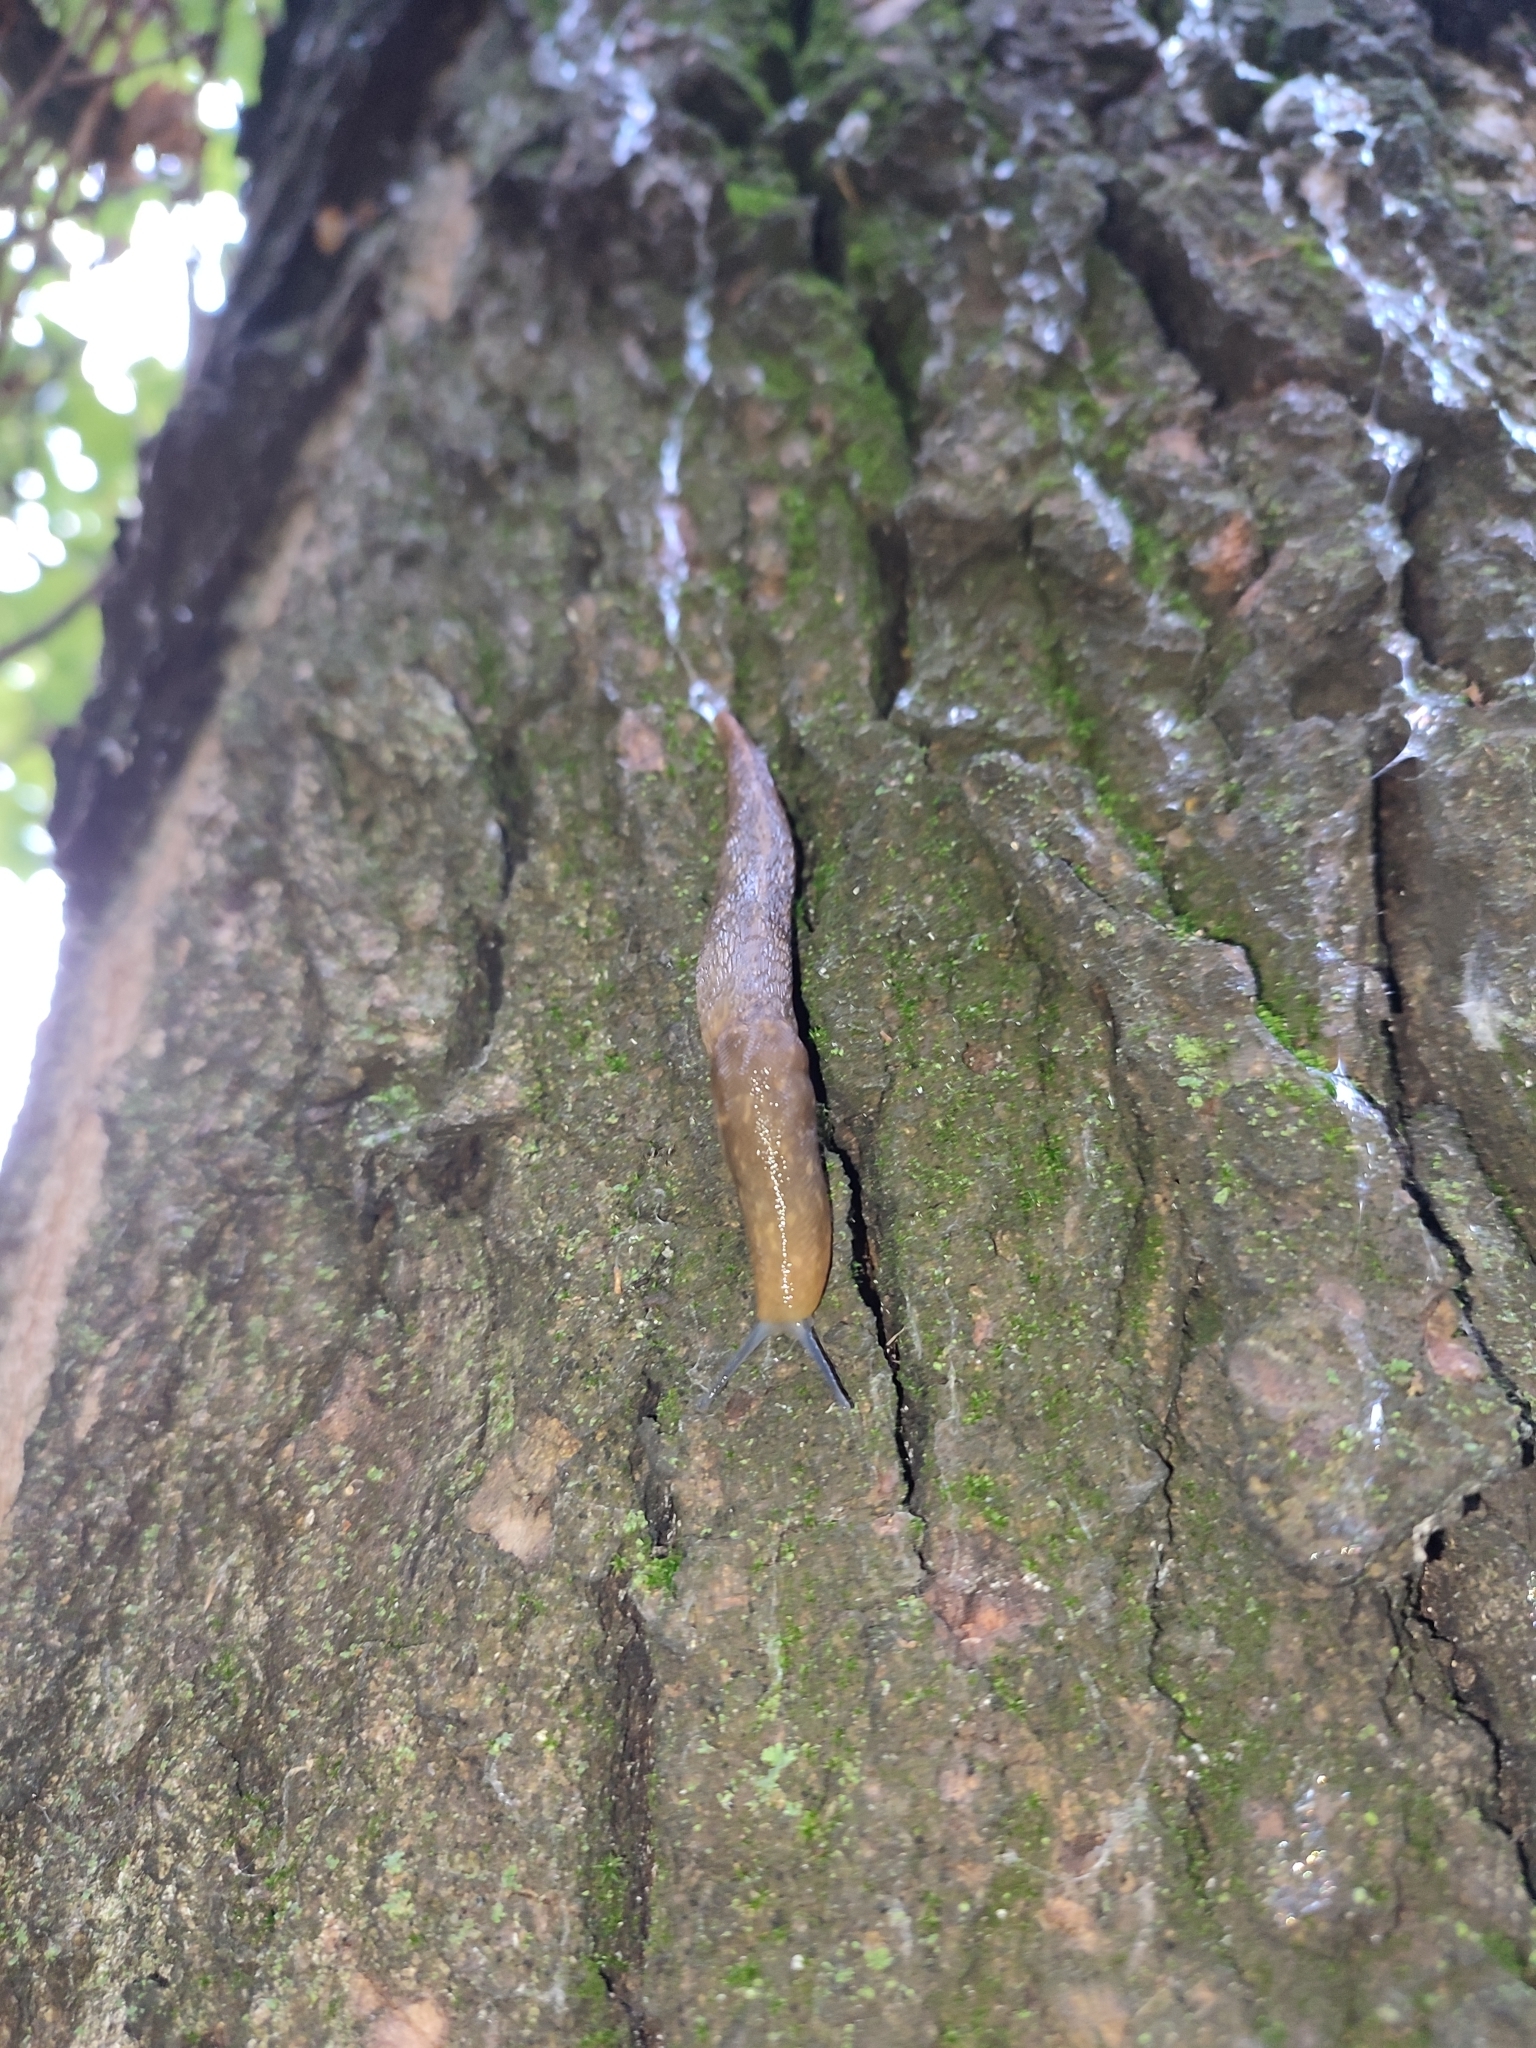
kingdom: Animalia
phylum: Mollusca
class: Gastropoda
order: Stylommatophora
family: Limacidae
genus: Limacus
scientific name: Limacus flavus
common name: Yellow gardenslug
